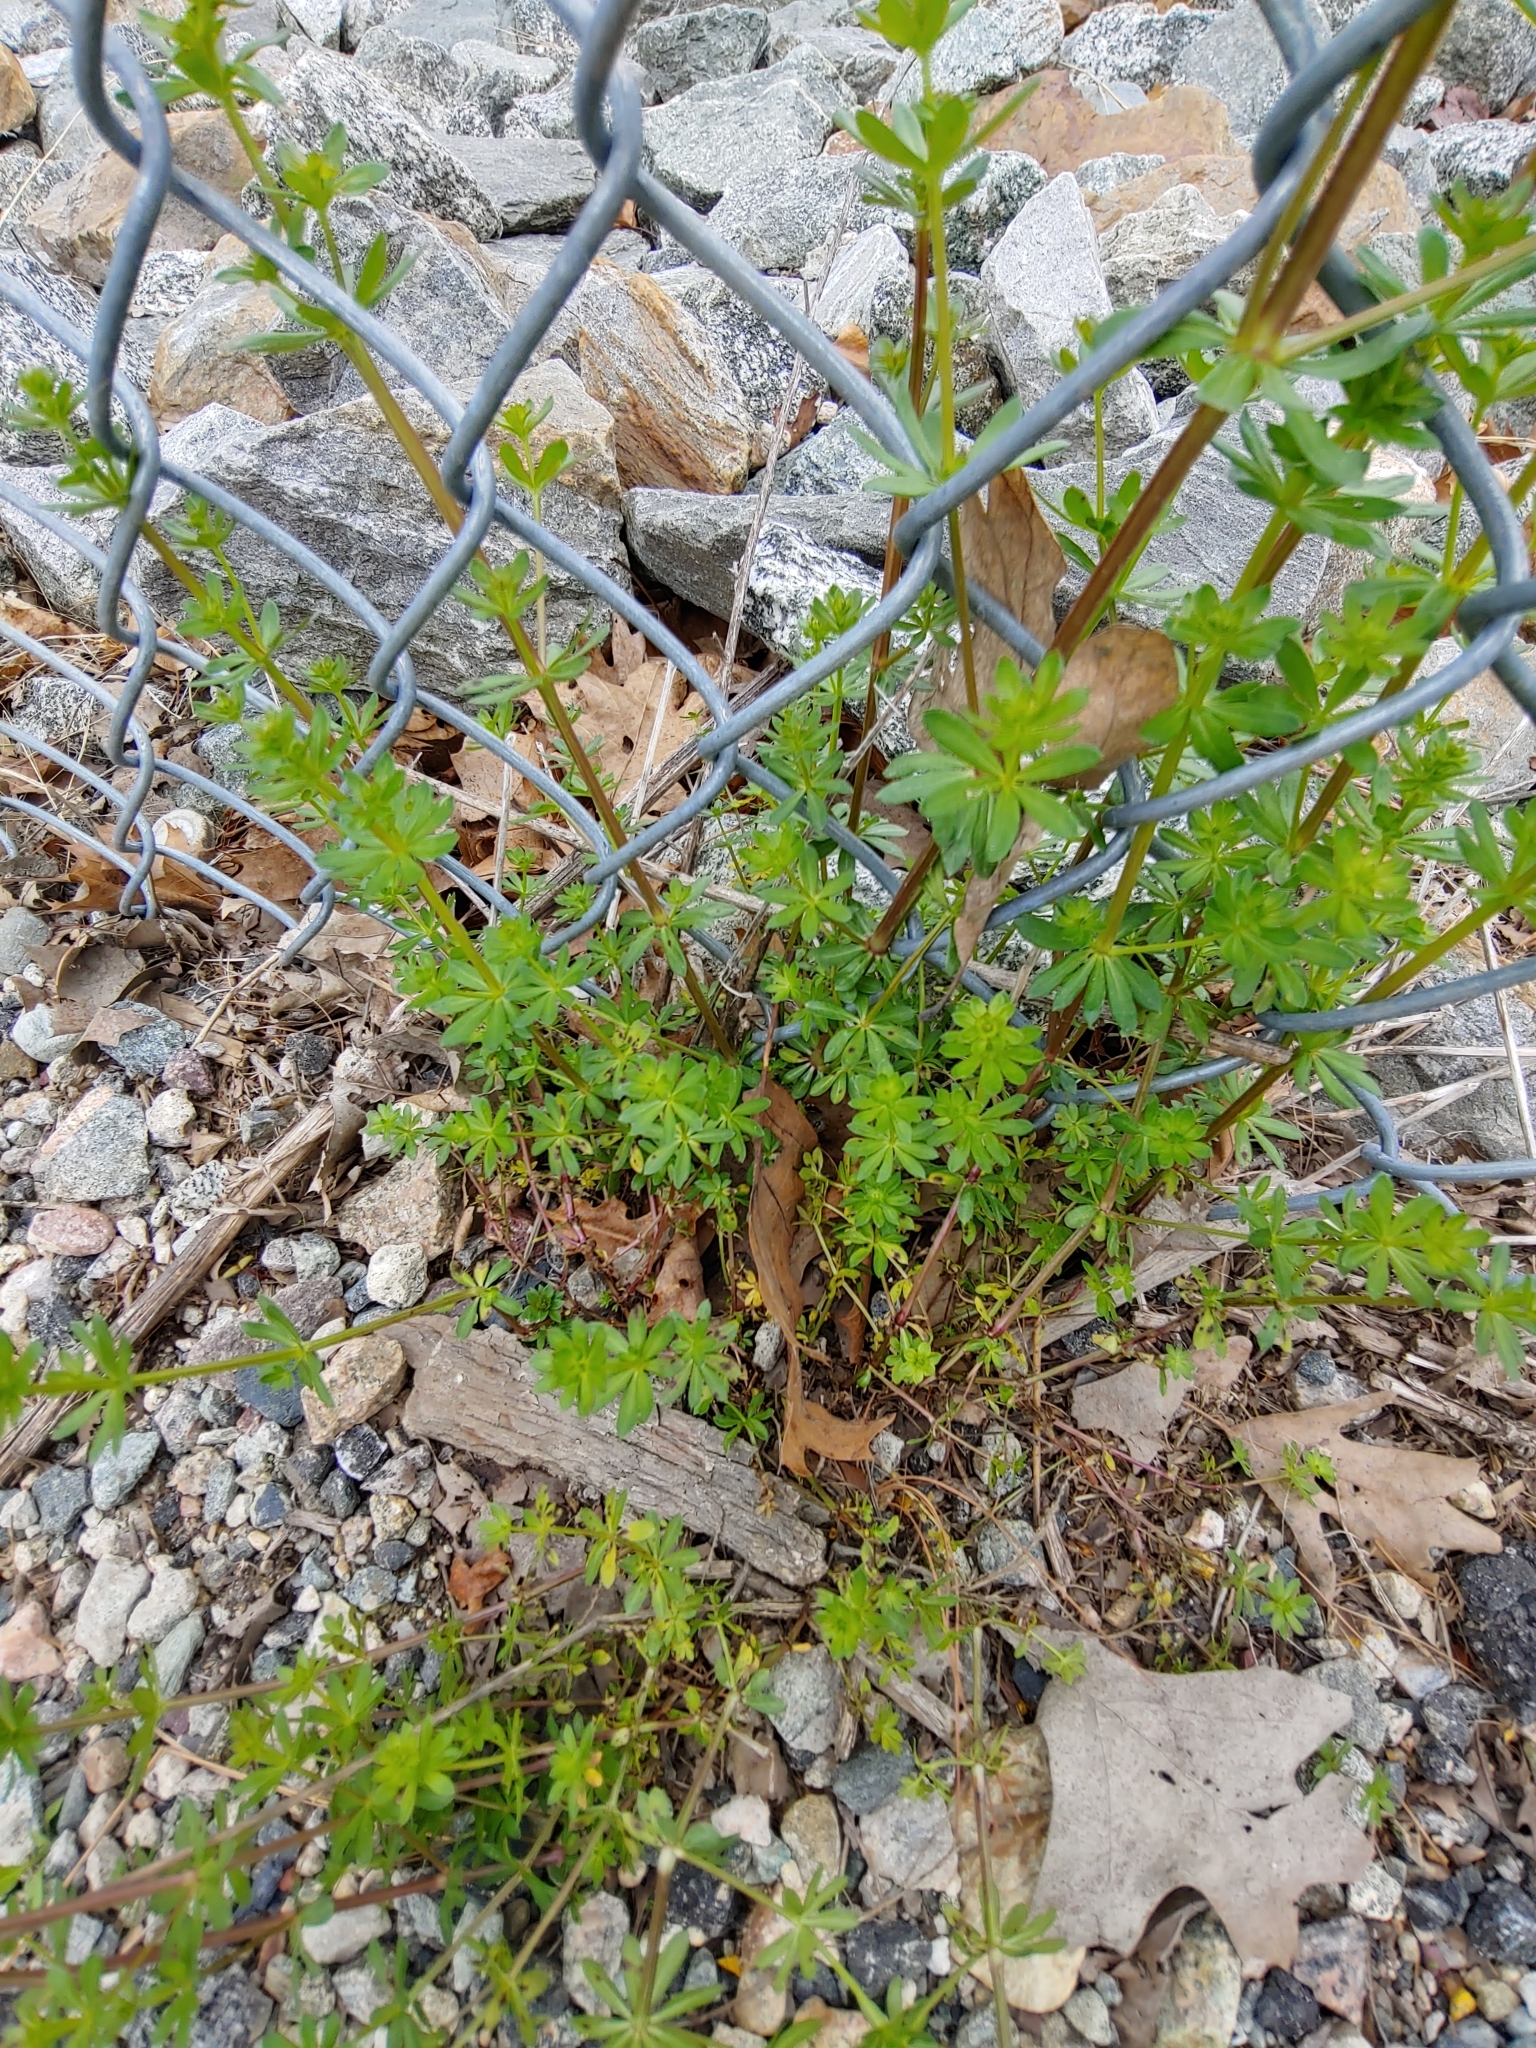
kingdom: Plantae
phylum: Tracheophyta
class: Magnoliopsida
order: Gentianales
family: Rubiaceae
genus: Galium
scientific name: Galium mollugo
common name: Hedge bedstraw
